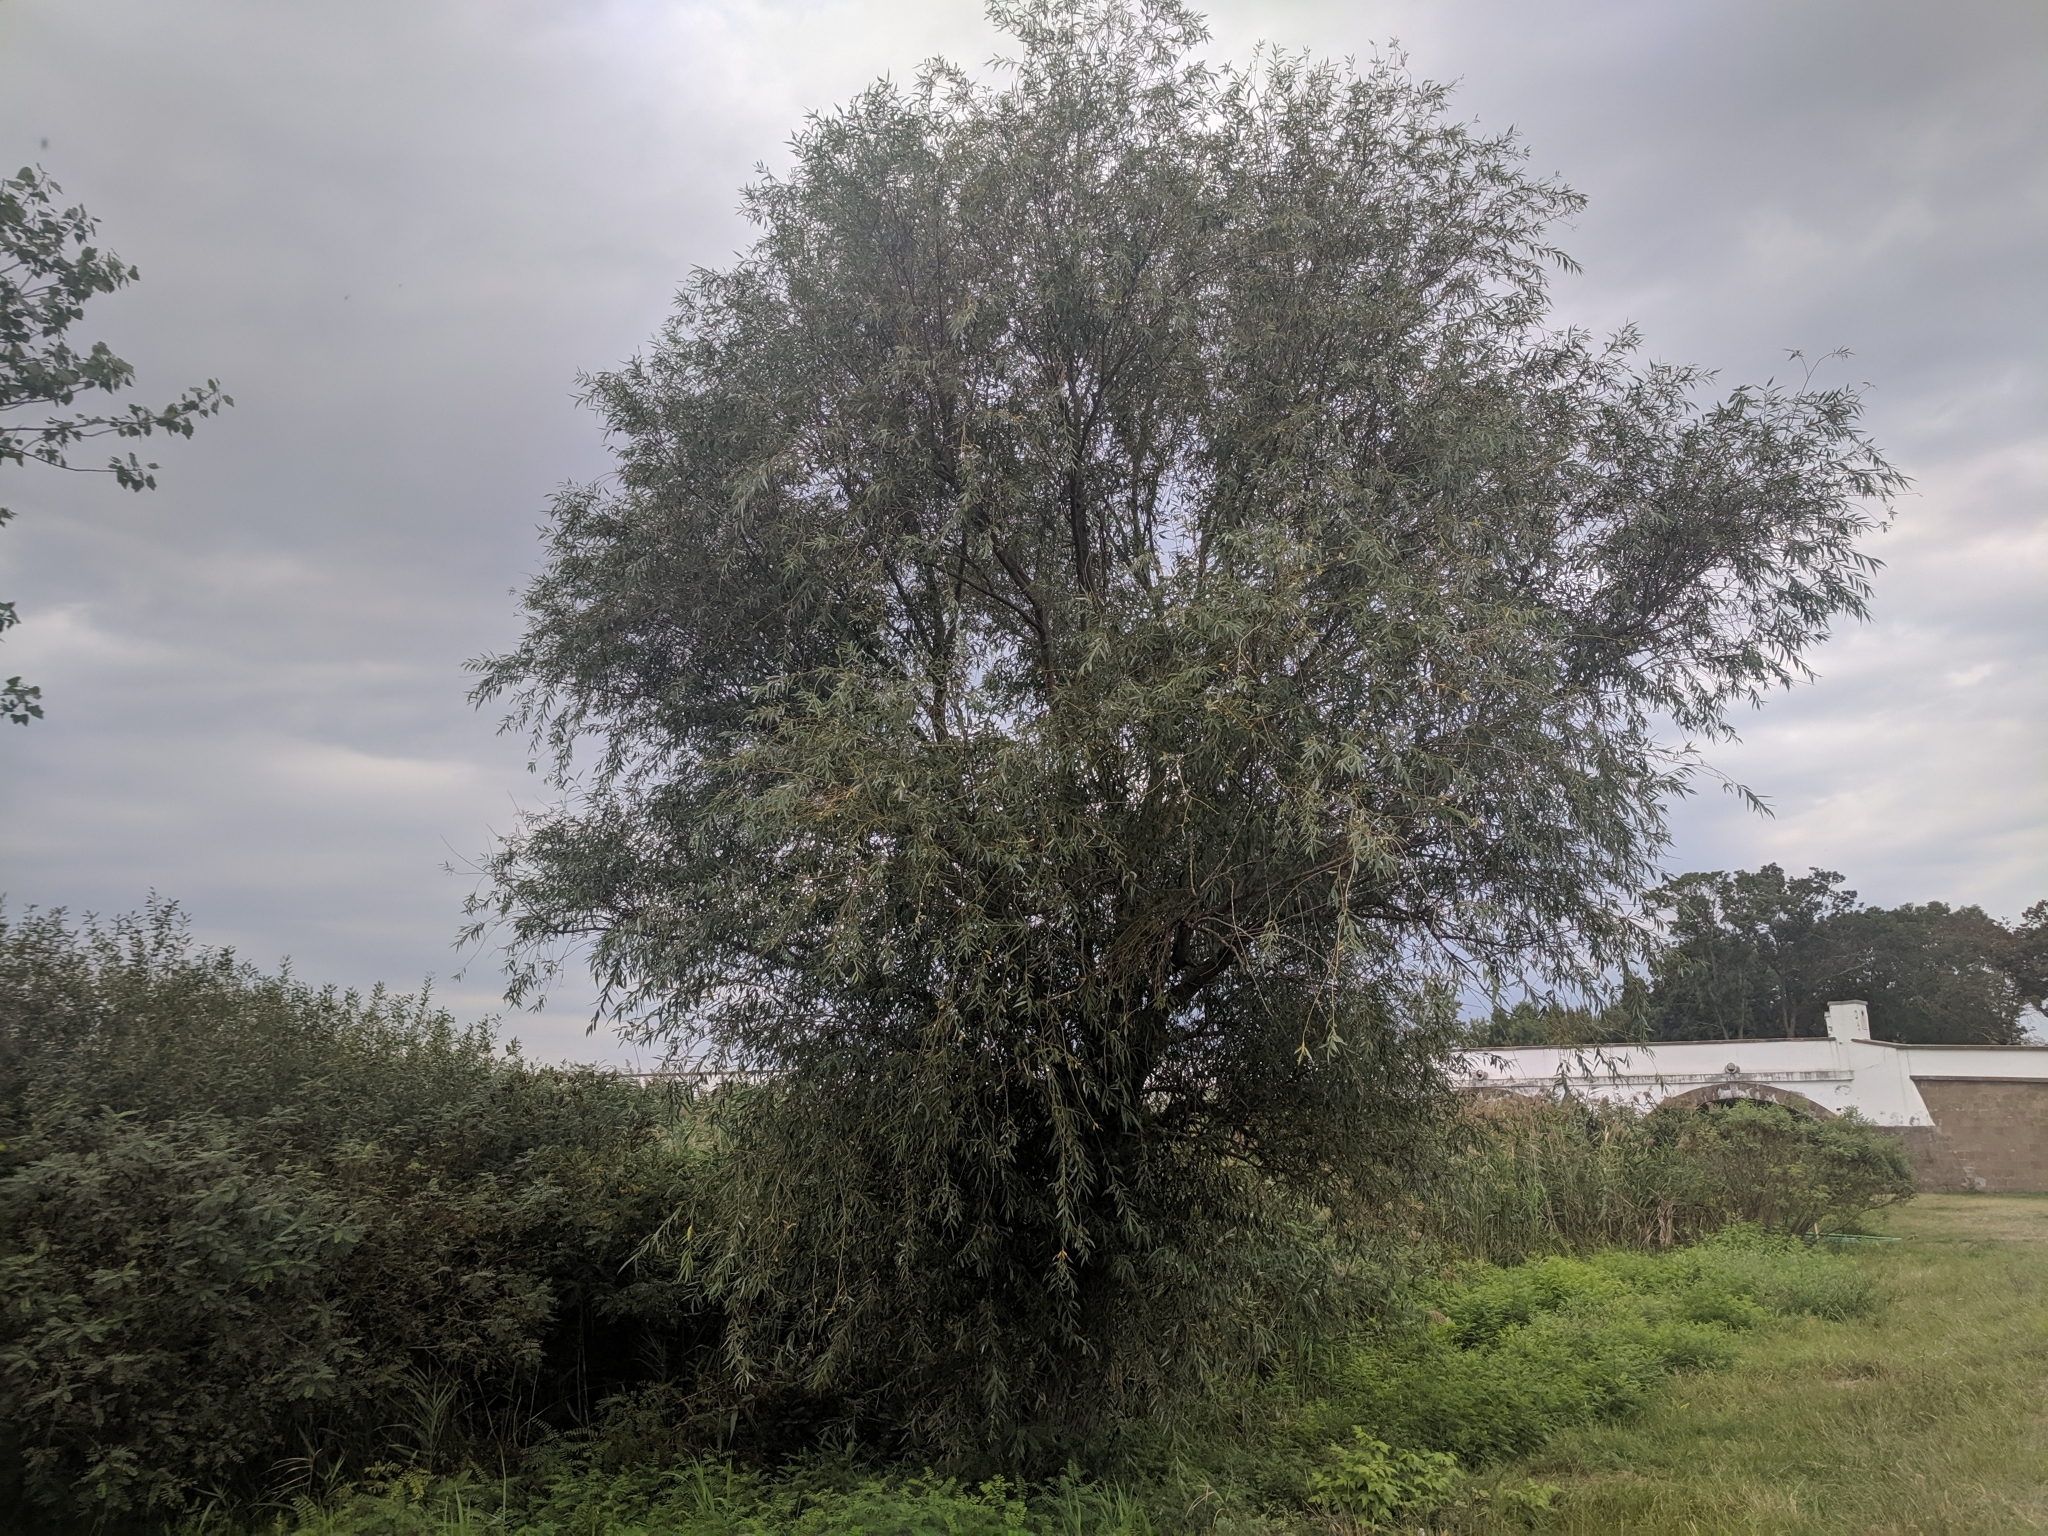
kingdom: Plantae
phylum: Tracheophyta
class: Magnoliopsida
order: Malpighiales
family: Salicaceae
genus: Salix
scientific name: Salix alba
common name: White willow
